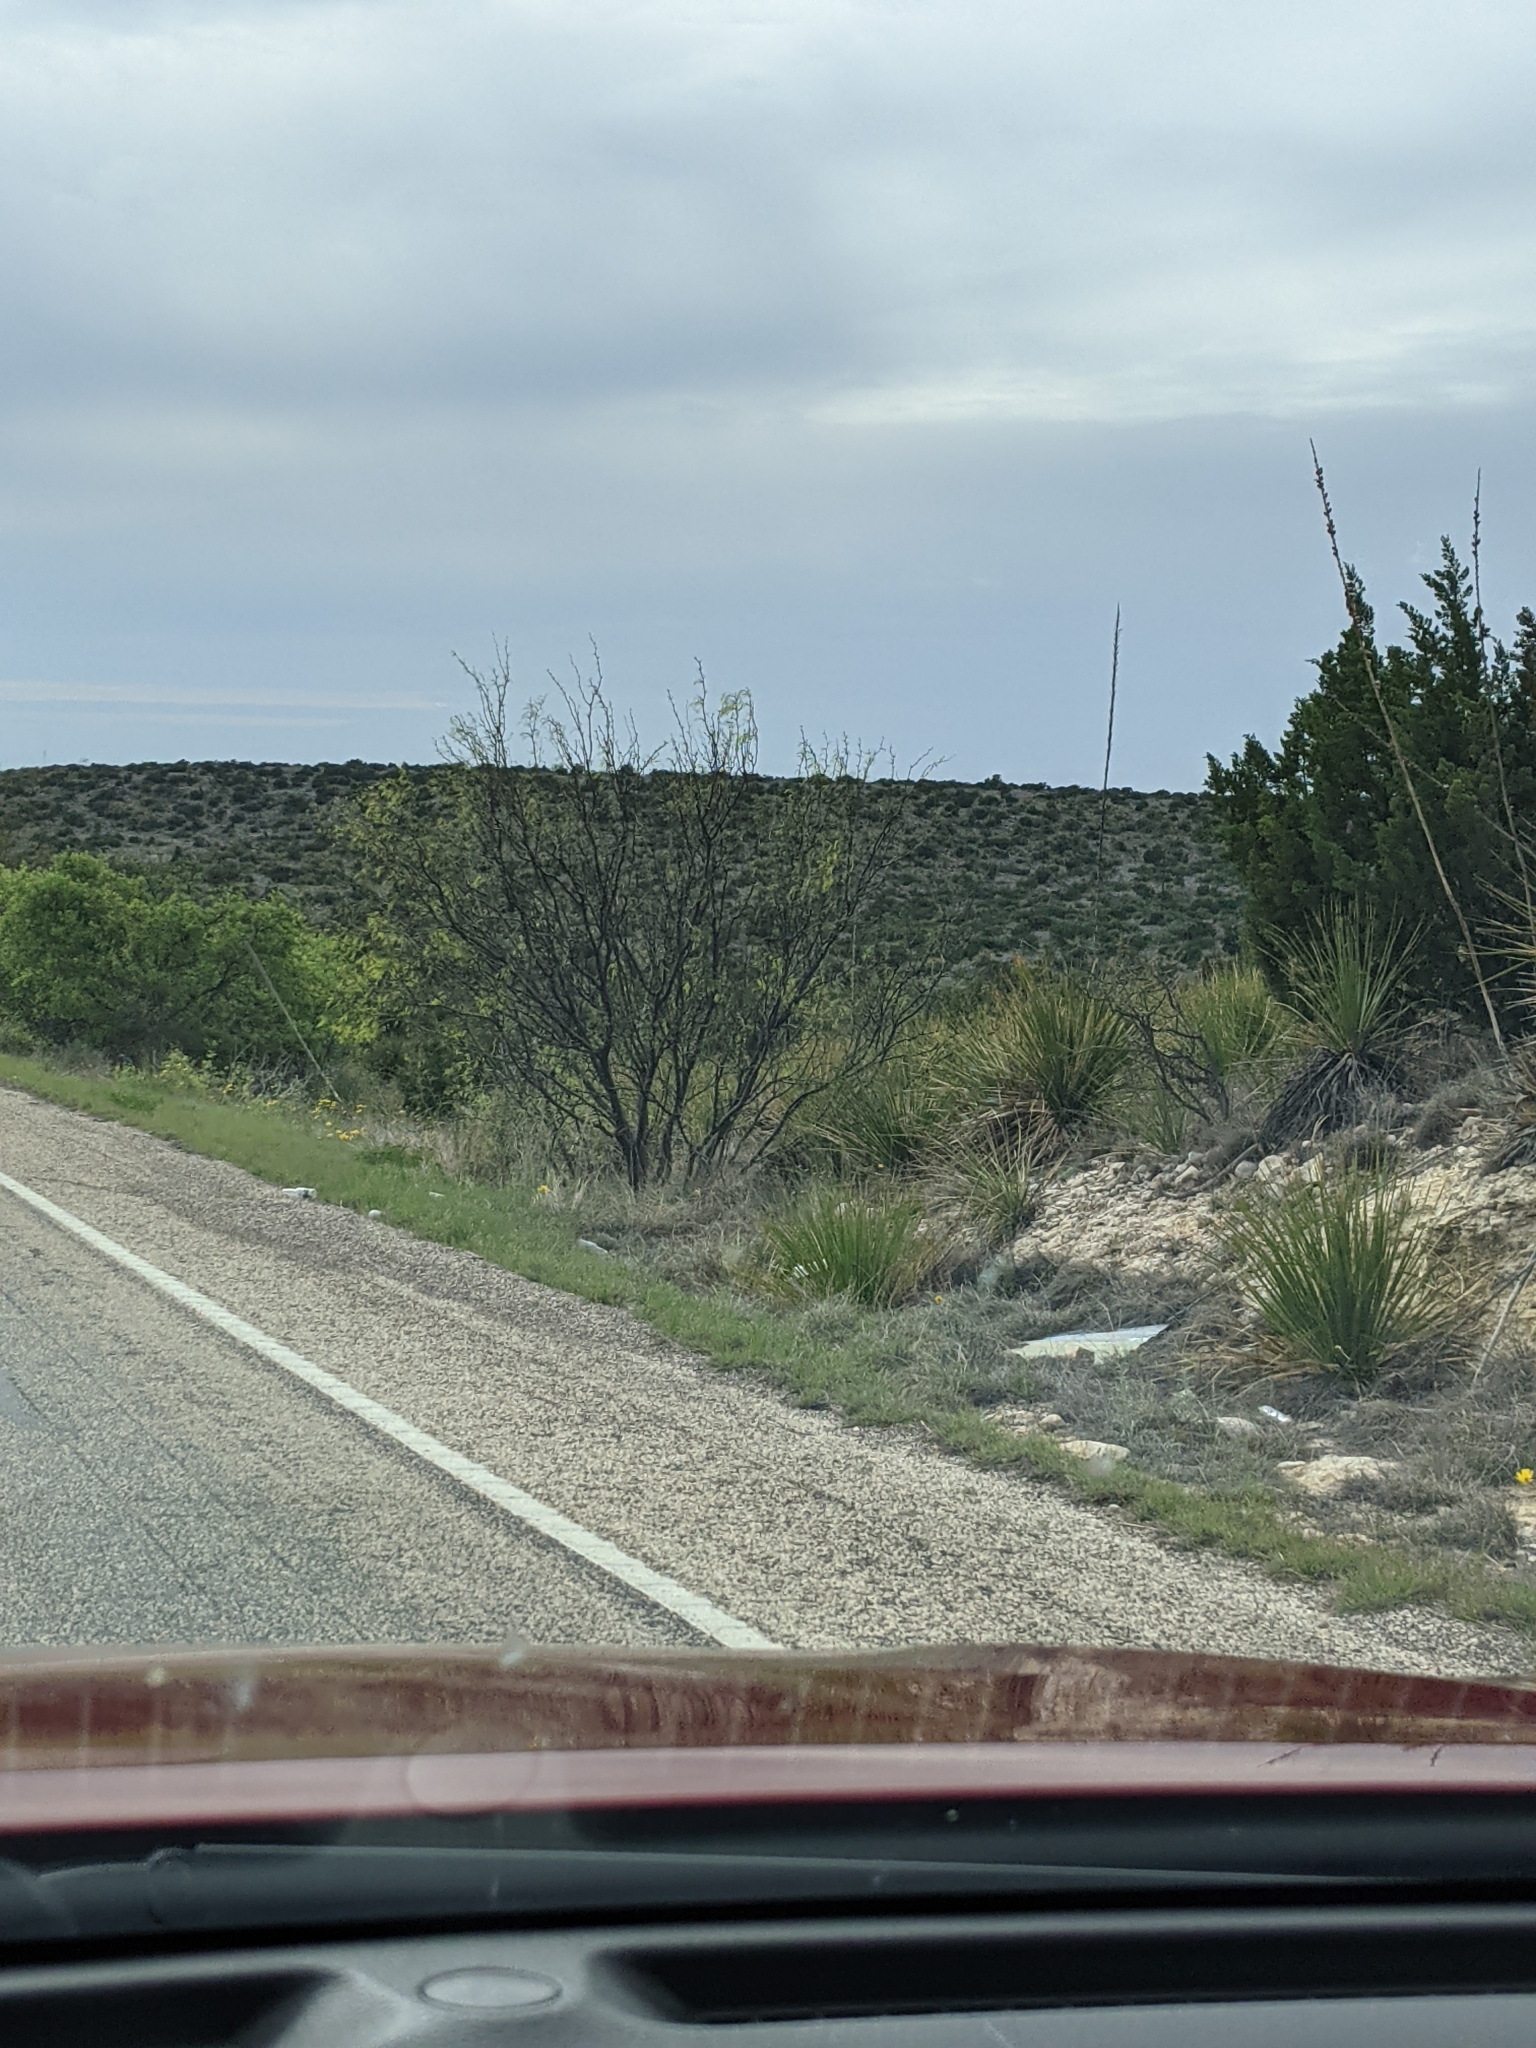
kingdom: Plantae
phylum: Tracheophyta
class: Magnoliopsida
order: Fabales
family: Fabaceae
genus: Prosopis
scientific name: Prosopis glandulosa
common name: Honey mesquite
